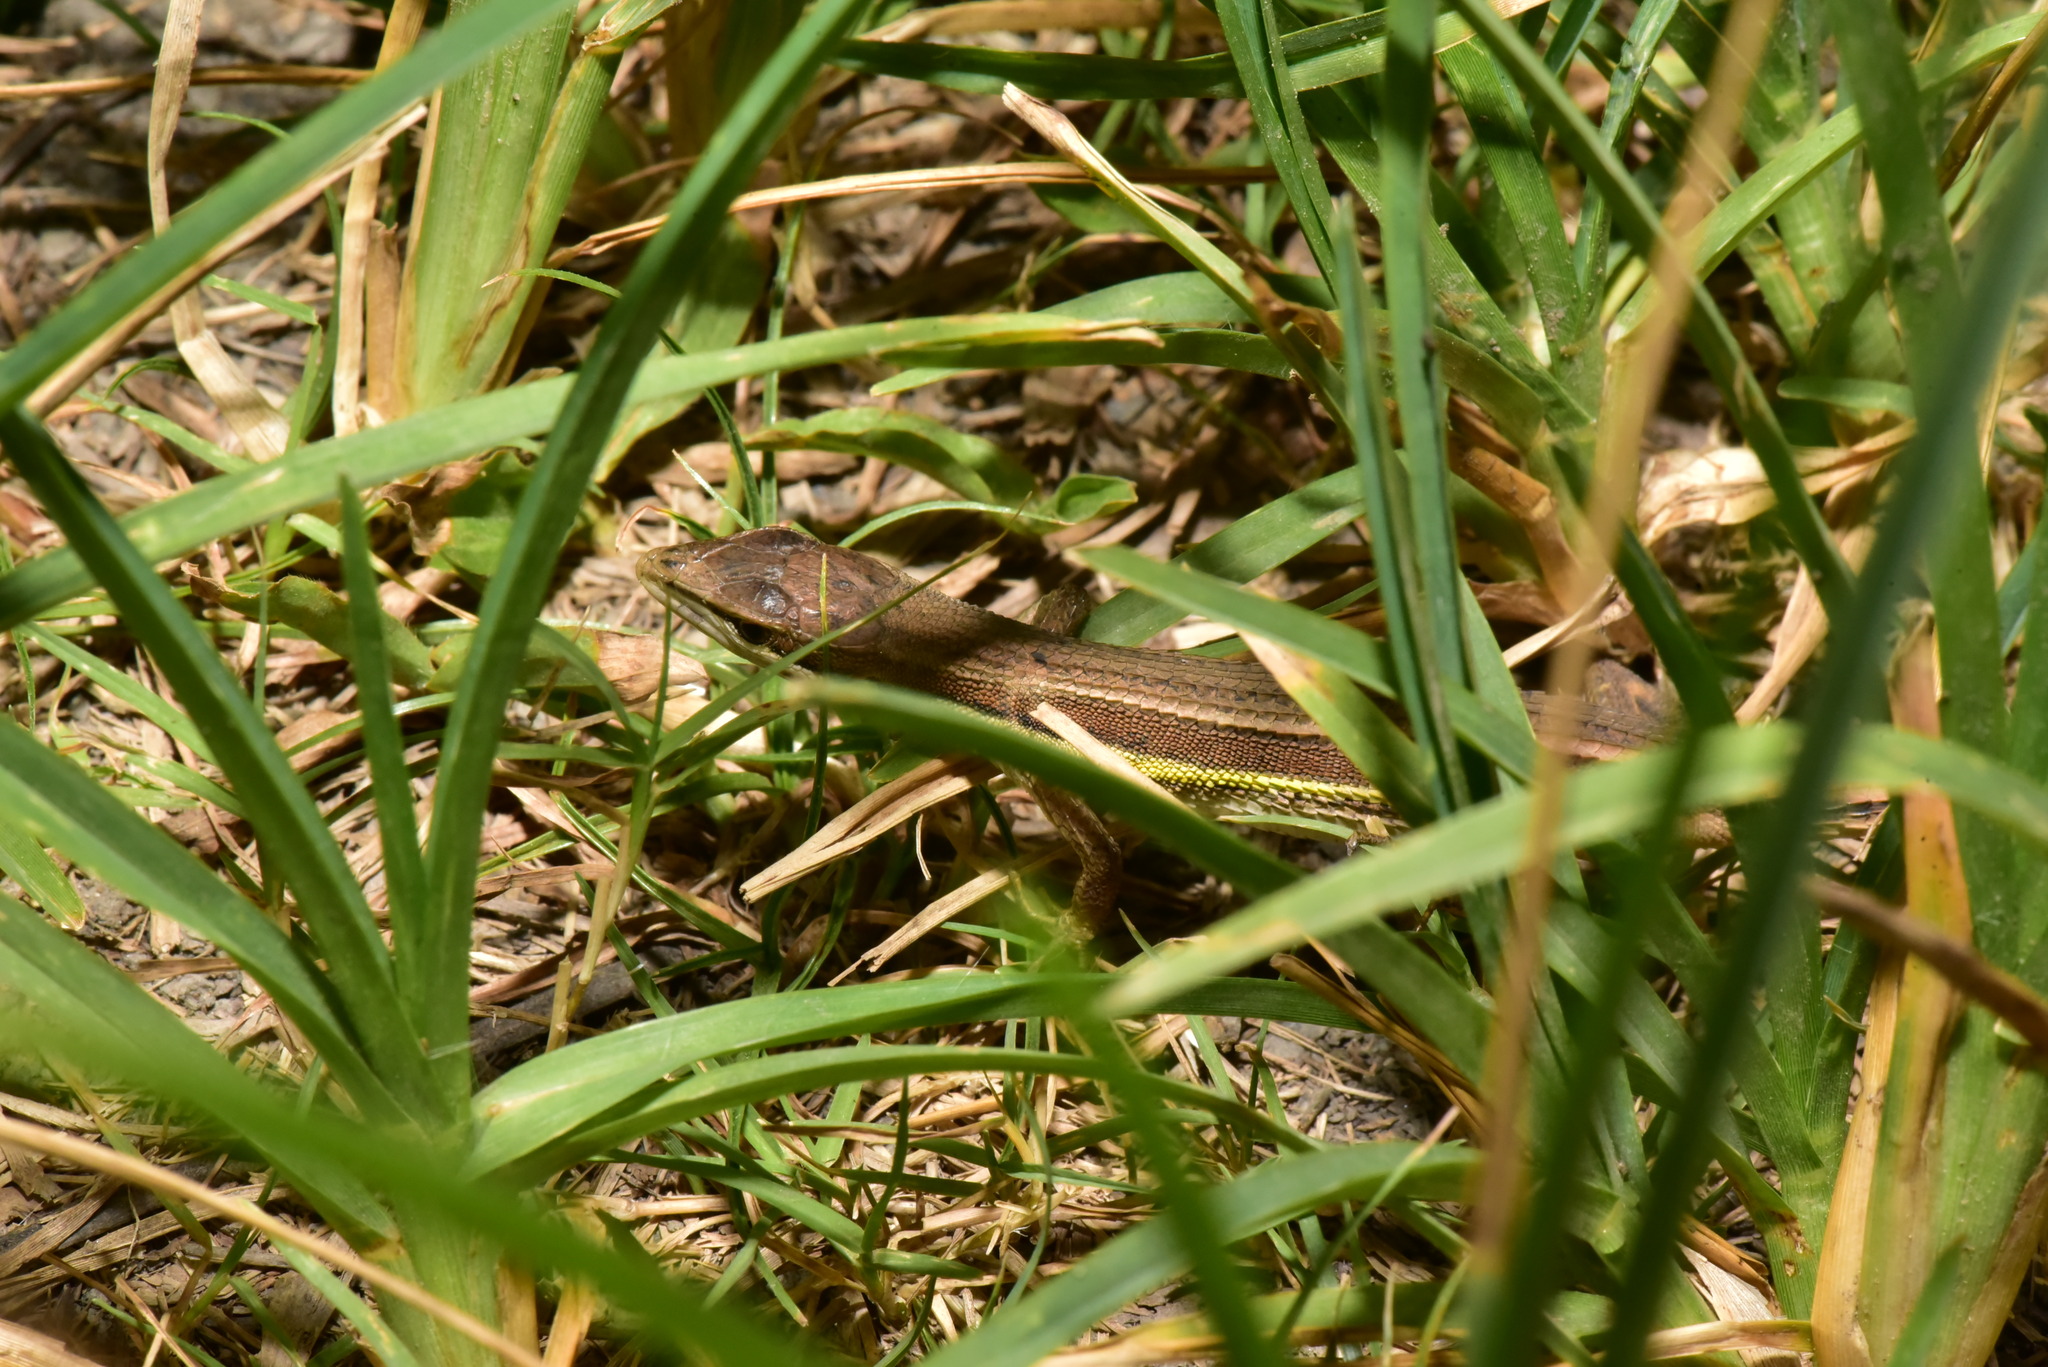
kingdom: Animalia
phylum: Chordata
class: Squamata
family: Lacertidae
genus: Takydromus
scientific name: Takydromus viridipunctatus
